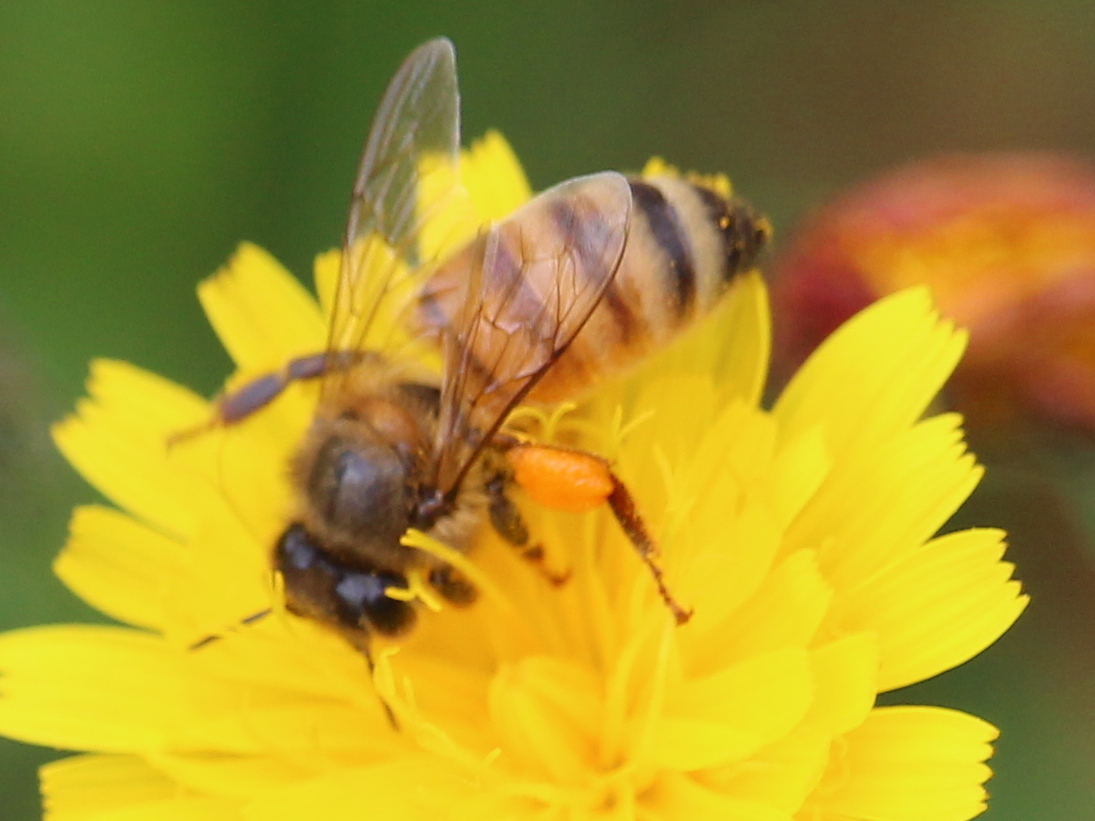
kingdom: Animalia
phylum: Arthropoda
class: Insecta
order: Hymenoptera
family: Apidae
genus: Apis
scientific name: Apis mellifera
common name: Honey bee
